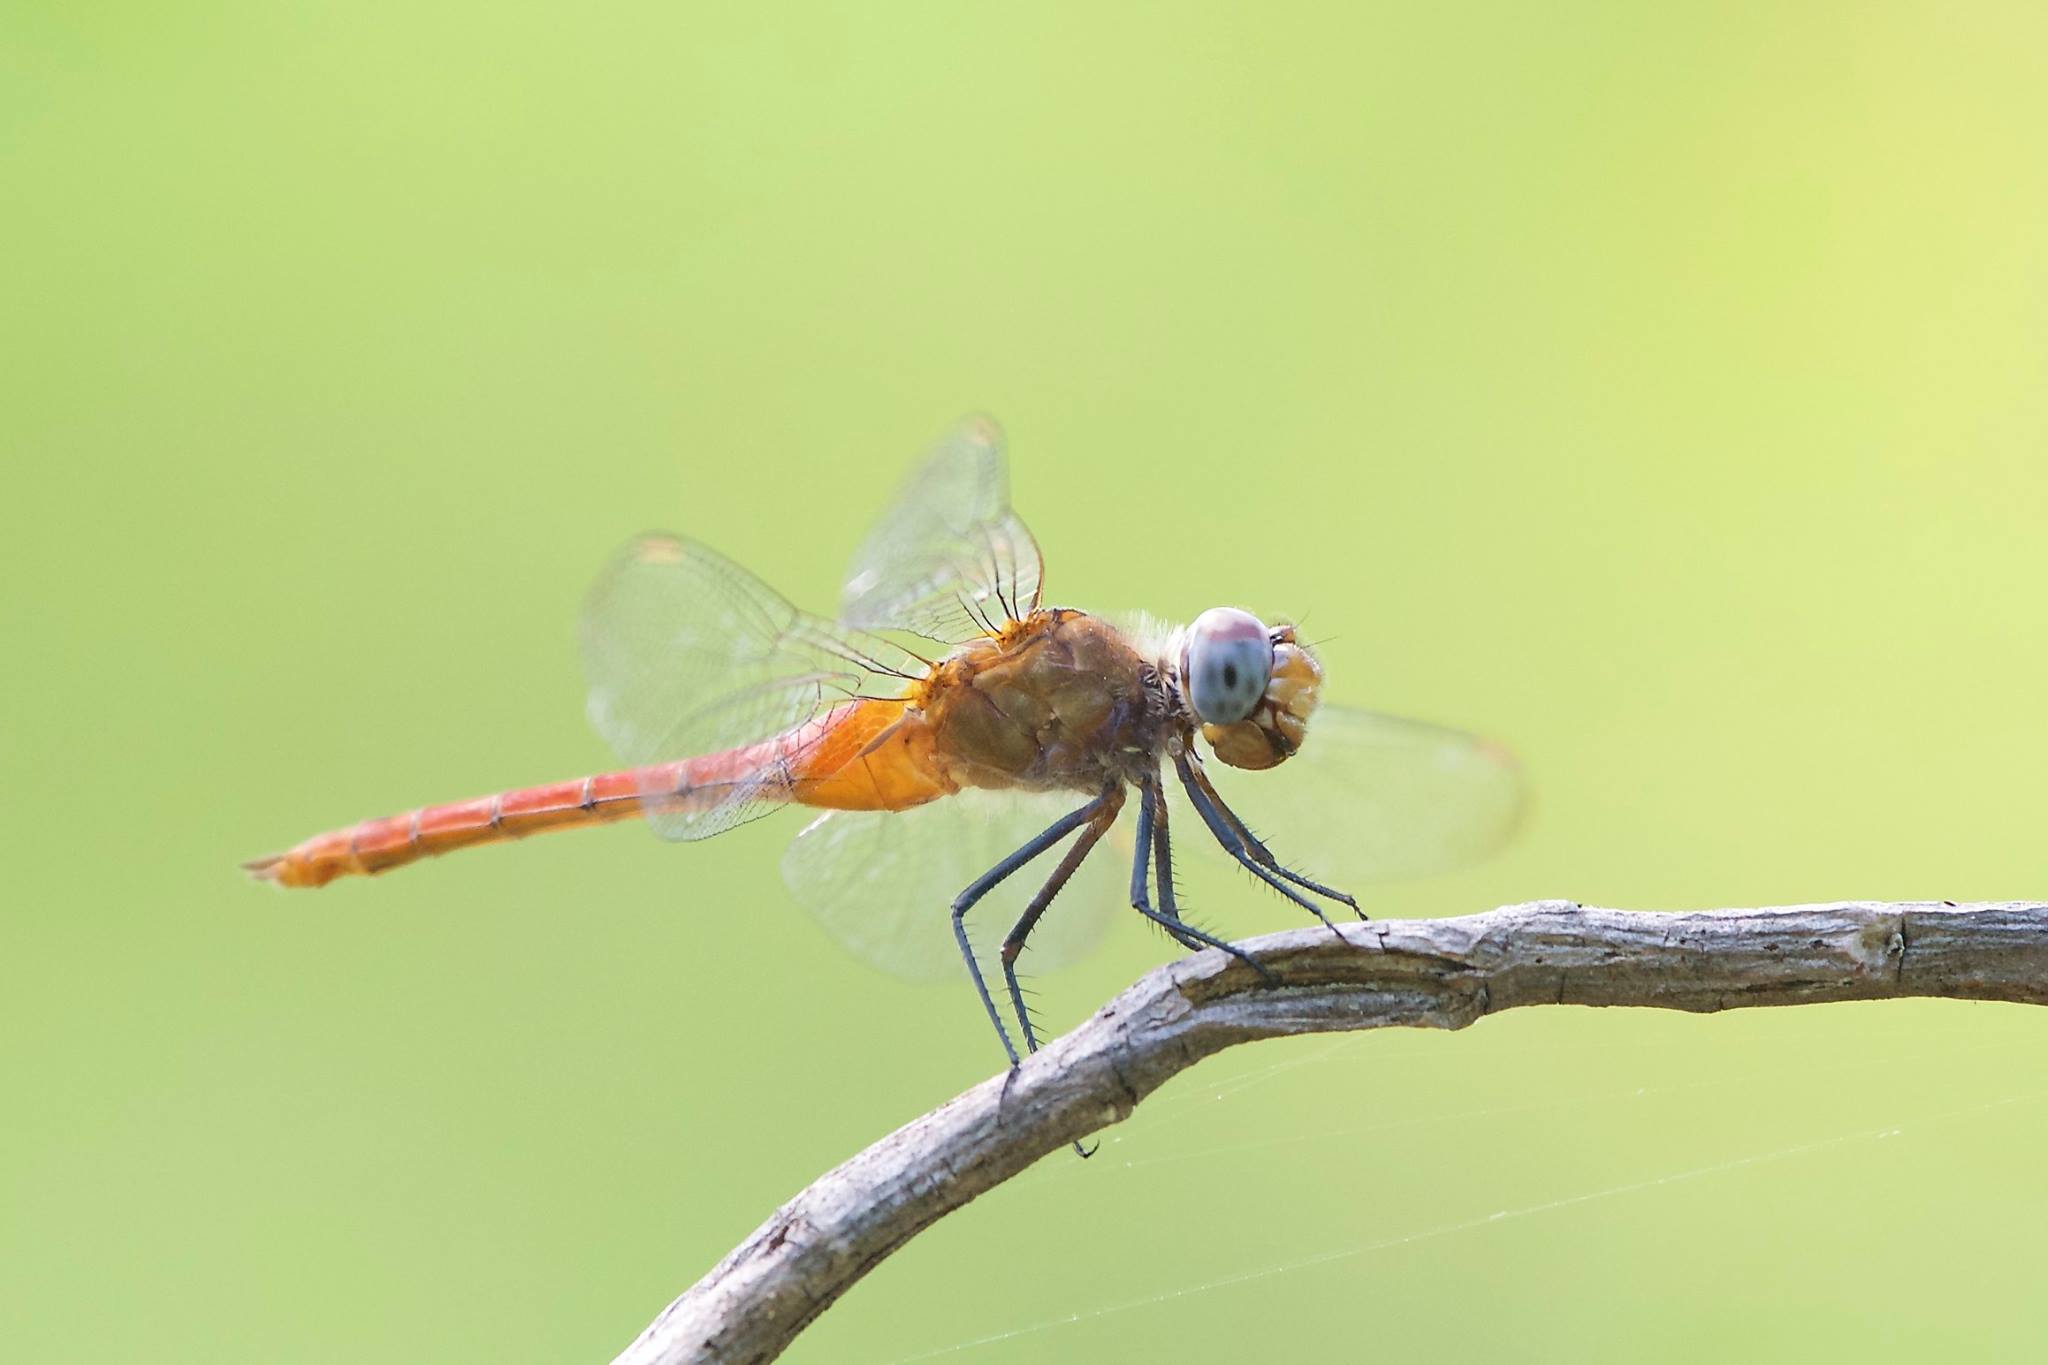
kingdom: Animalia
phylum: Arthropoda
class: Insecta
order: Odonata
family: Libellulidae
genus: Brachymesia
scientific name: Brachymesia furcata
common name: Red-taled pennant
